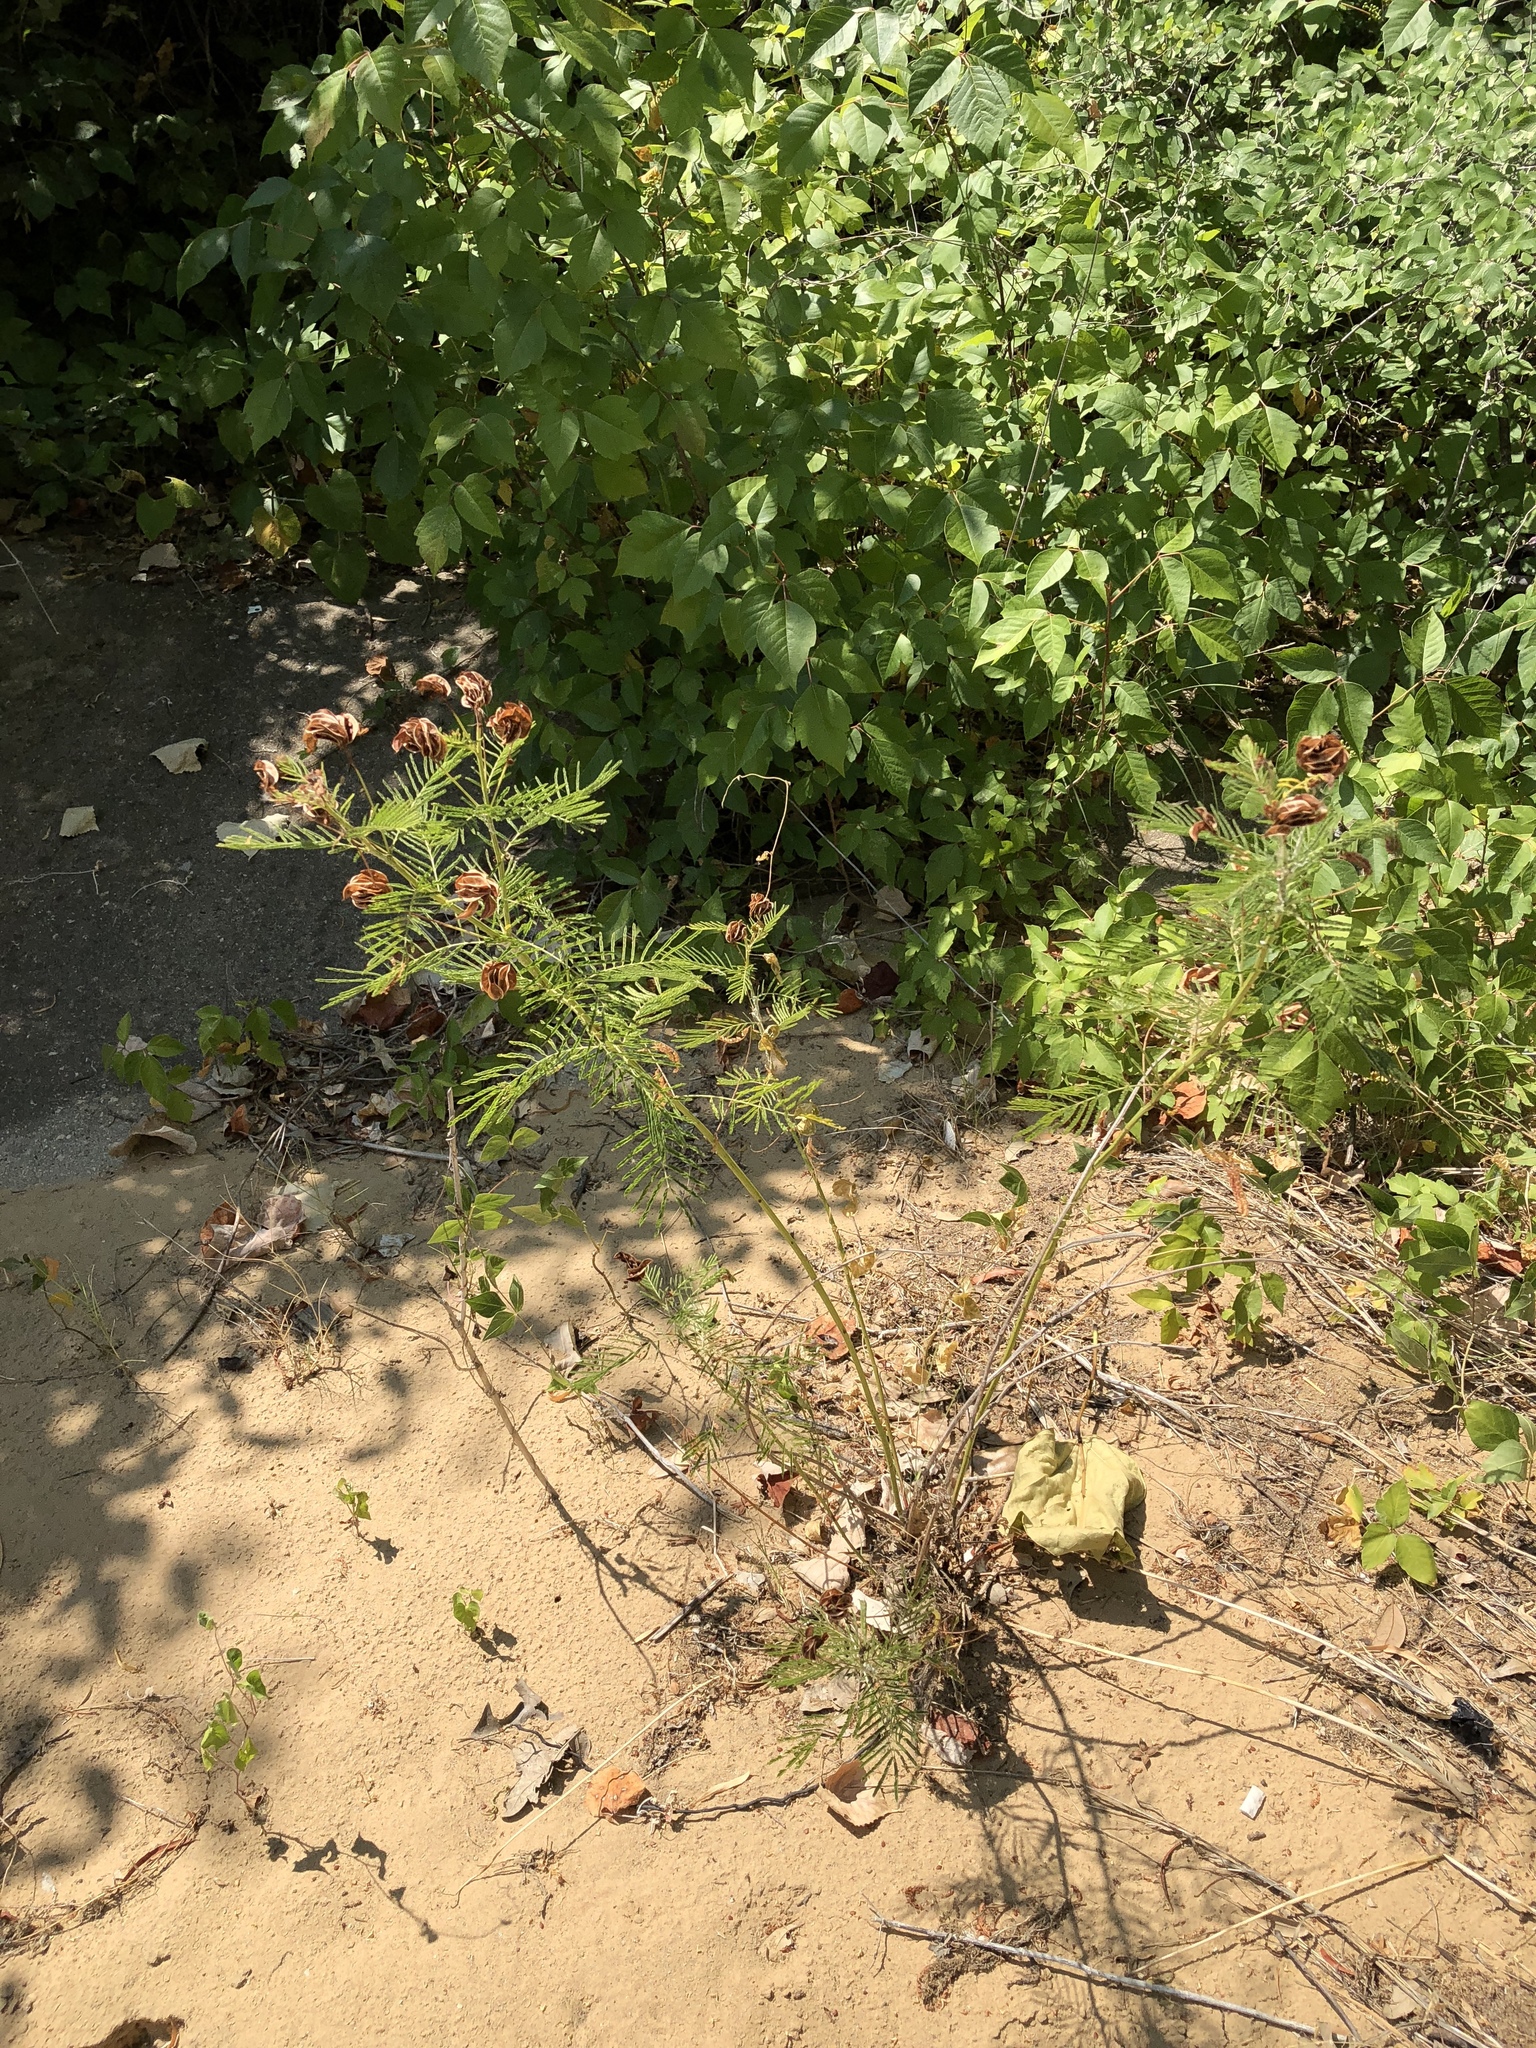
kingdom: Plantae
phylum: Tracheophyta
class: Magnoliopsida
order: Fabales
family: Fabaceae
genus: Desmanthus
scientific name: Desmanthus illinoensis
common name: Illinois bundle-flower
